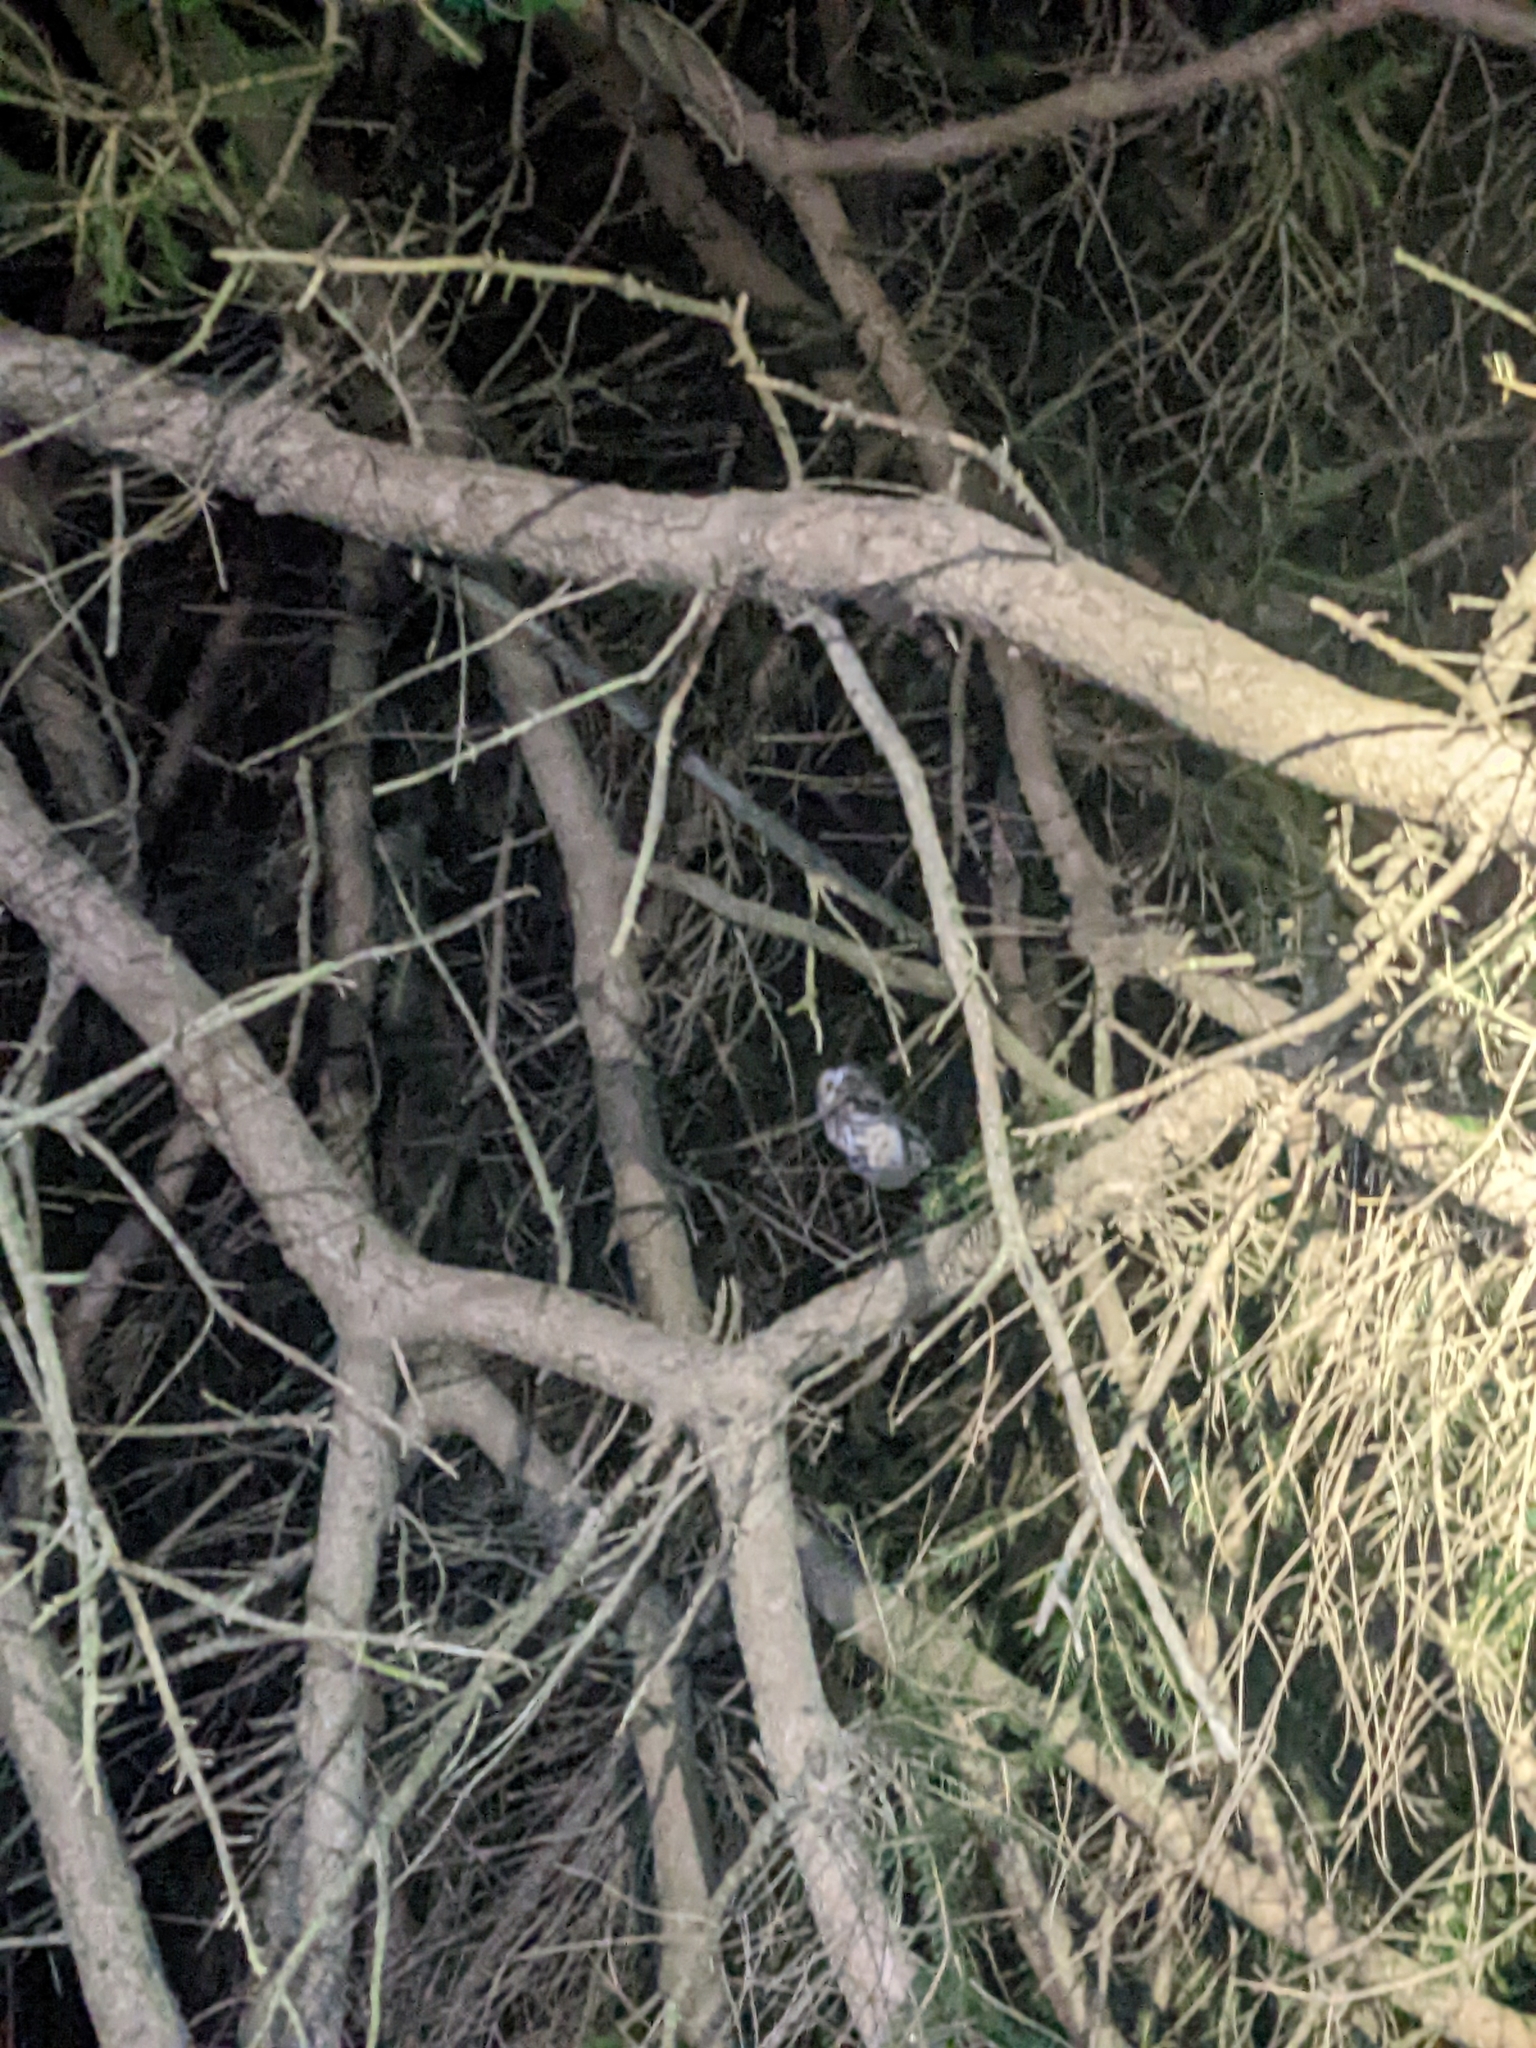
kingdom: Animalia
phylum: Chordata
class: Aves
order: Strigiformes
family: Strigidae
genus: Aegolius
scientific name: Aegolius acadicus
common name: Northern saw-whet owl
